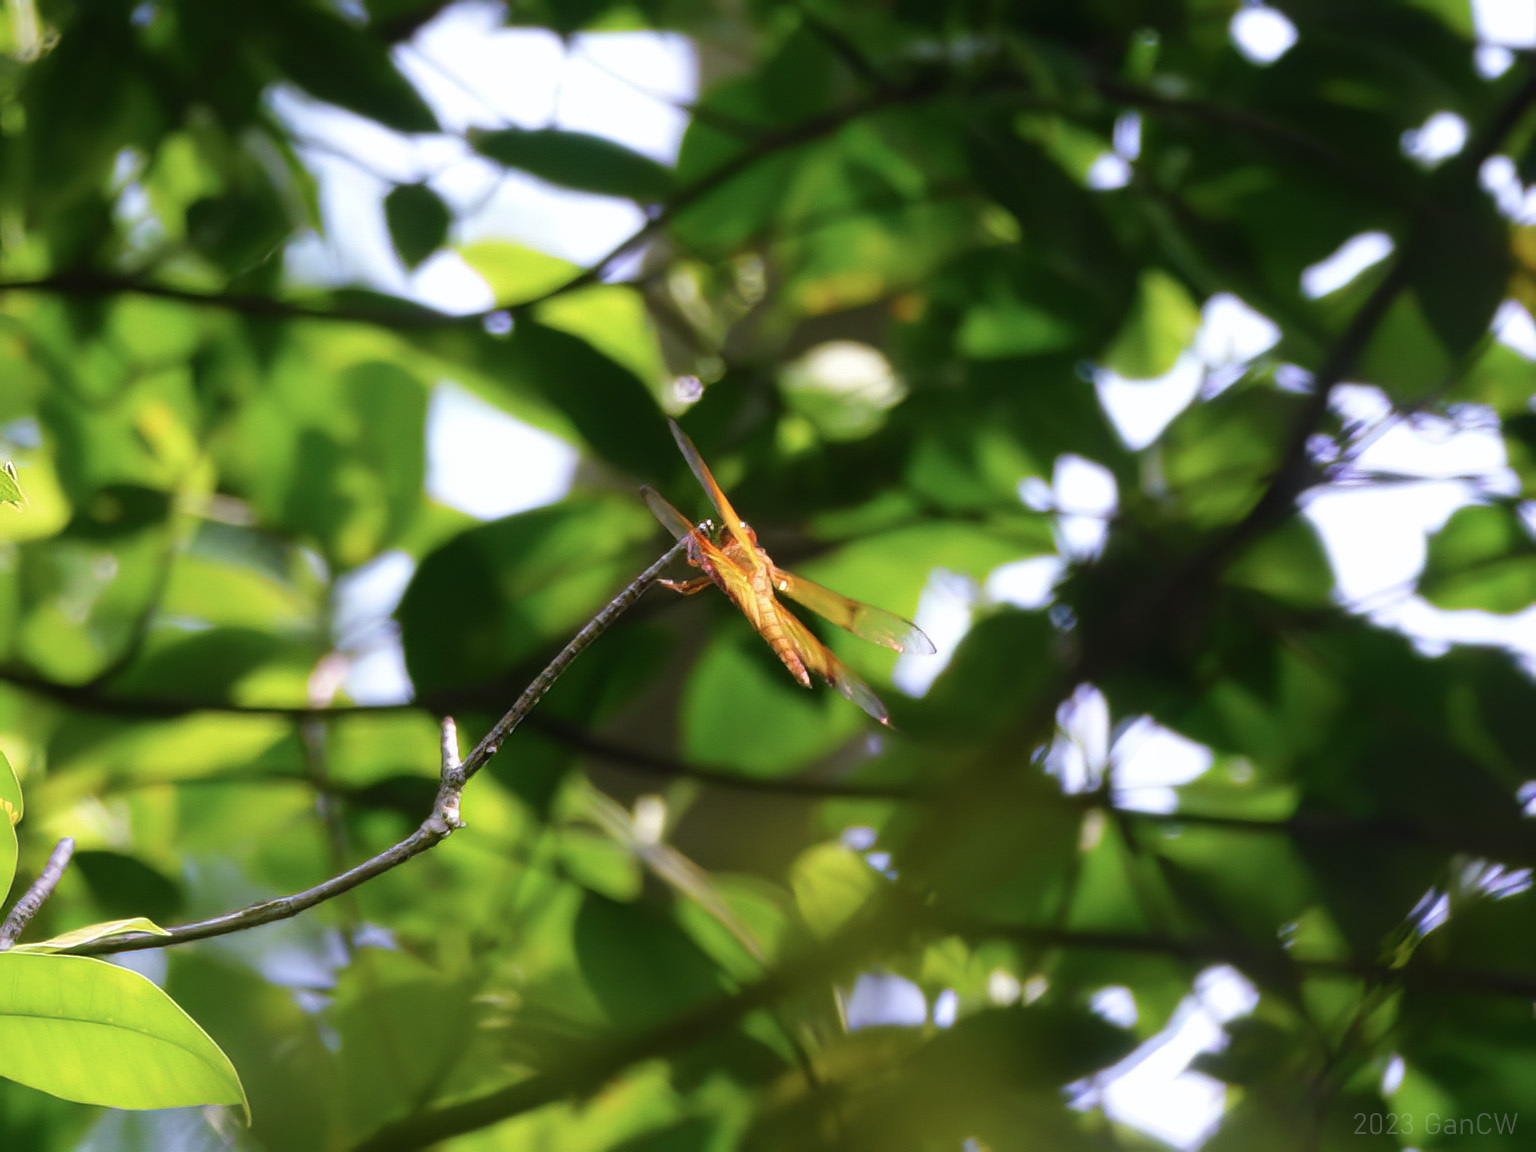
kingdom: Animalia
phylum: Arthropoda
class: Insecta
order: Odonata
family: Libellulidae
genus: Camacinia
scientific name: Camacinia gigantea
